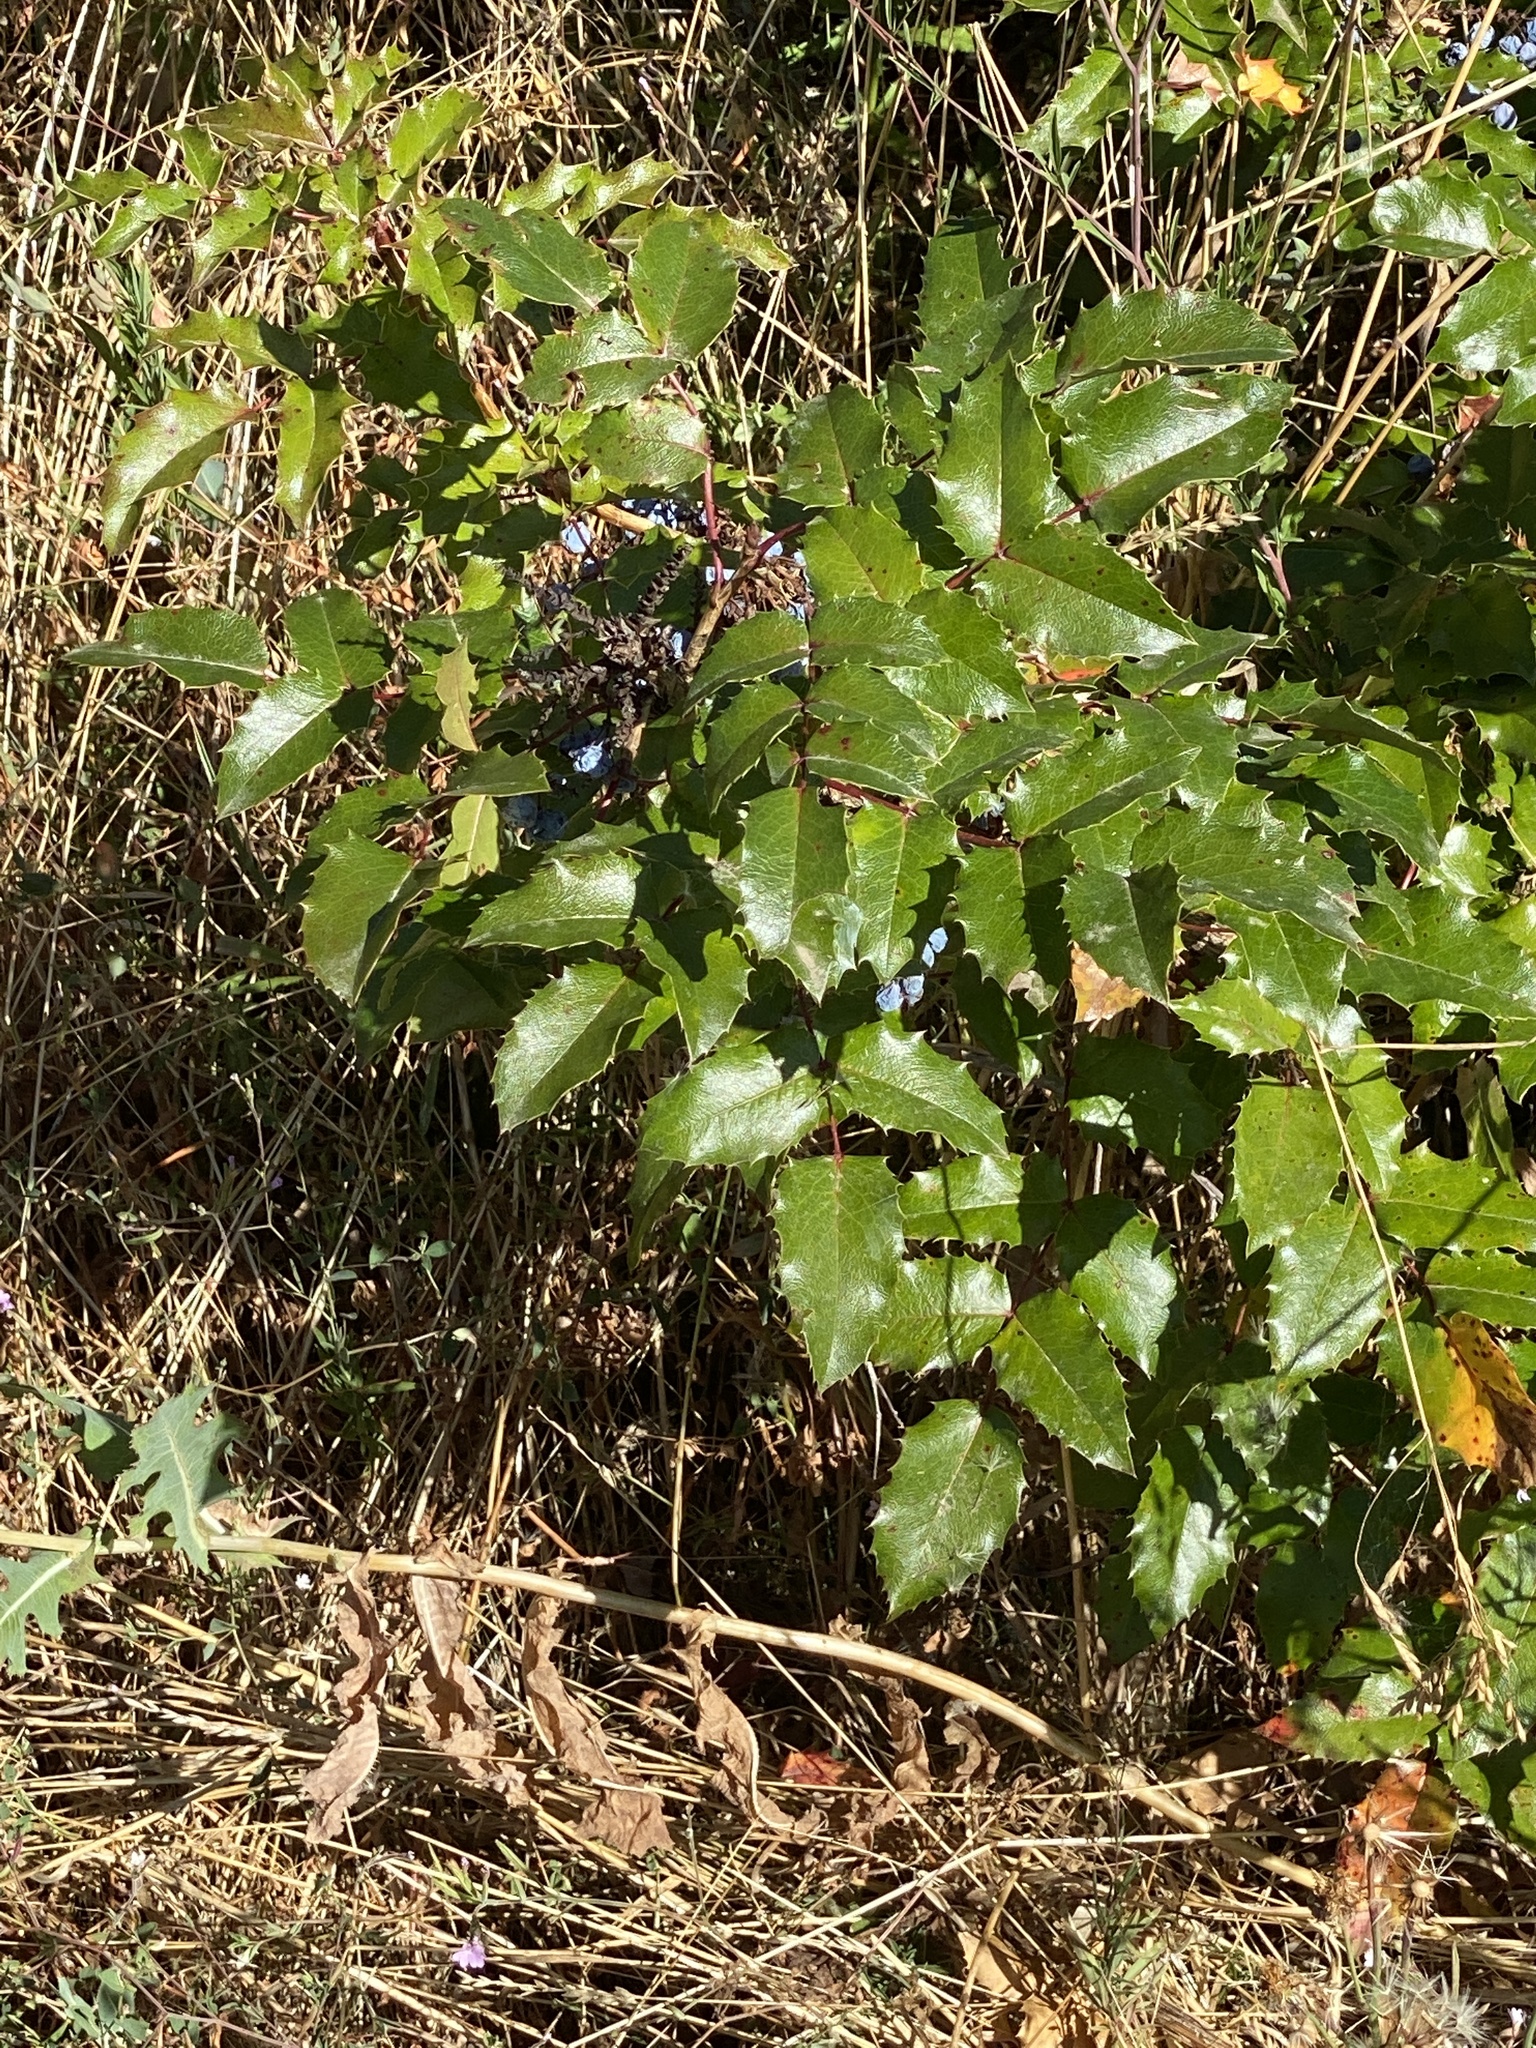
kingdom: Plantae
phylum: Tracheophyta
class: Magnoliopsida
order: Ranunculales
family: Berberidaceae
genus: Mahonia
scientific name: Mahonia aquifolium
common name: Oregon-grape
